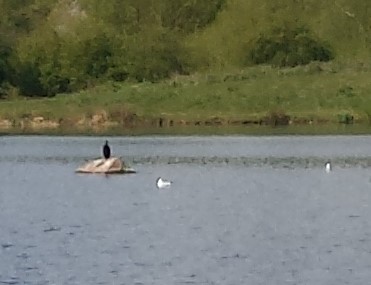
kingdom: Animalia
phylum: Chordata
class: Aves
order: Suliformes
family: Phalacrocoracidae
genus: Phalacrocorax
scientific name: Phalacrocorax carbo
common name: Great cormorant
